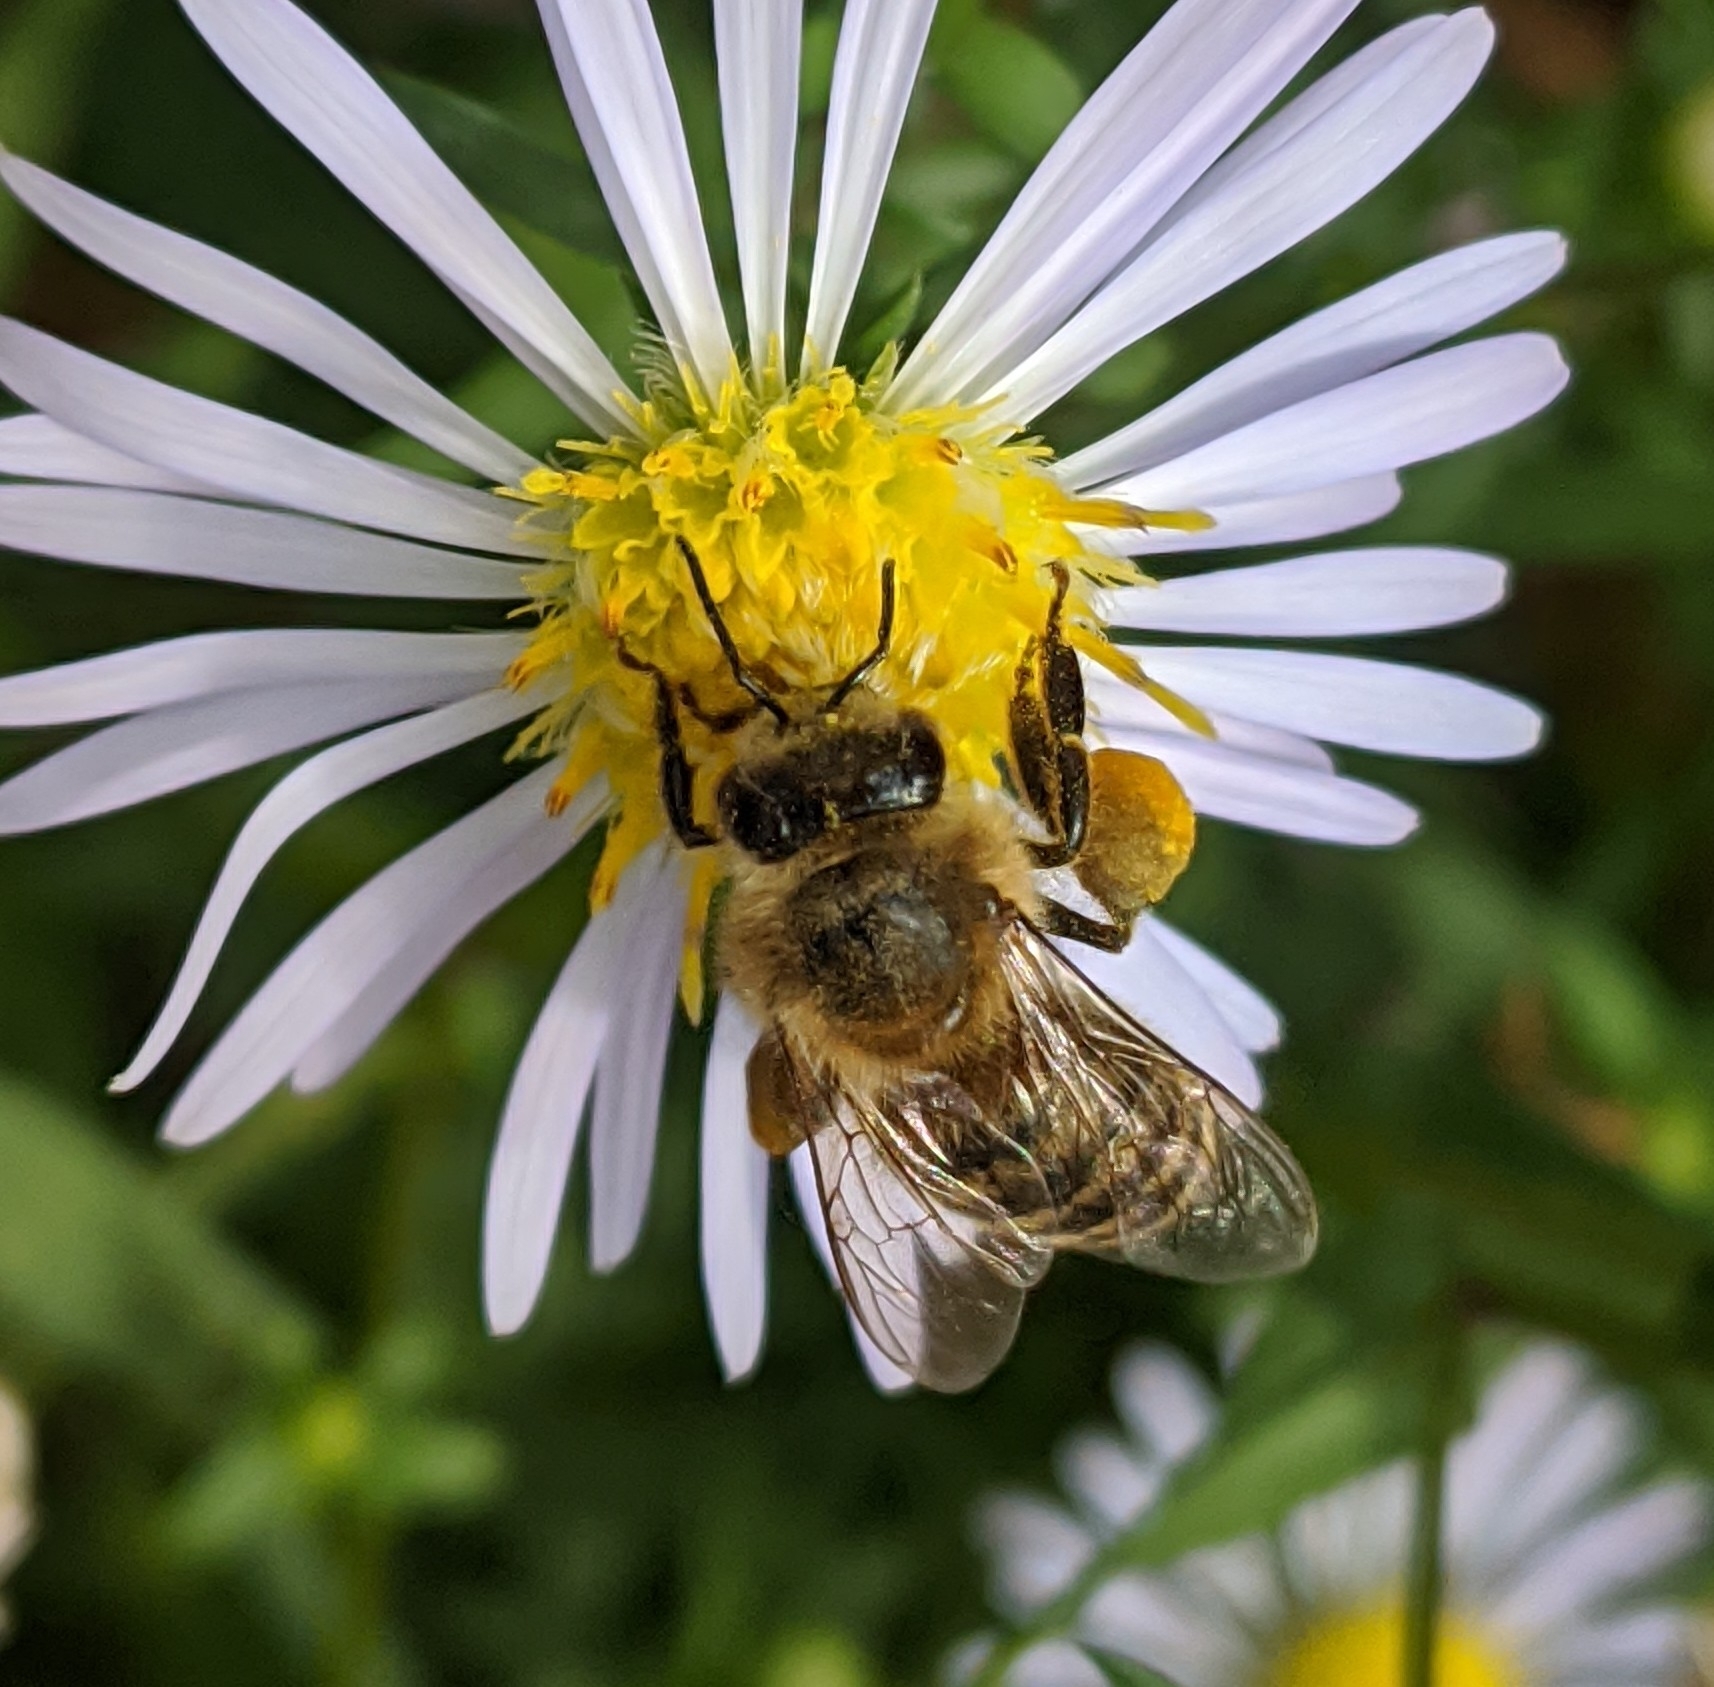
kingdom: Animalia
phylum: Arthropoda
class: Insecta
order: Hymenoptera
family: Apidae
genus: Apis
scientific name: Apis mellifera
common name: Honey bee
